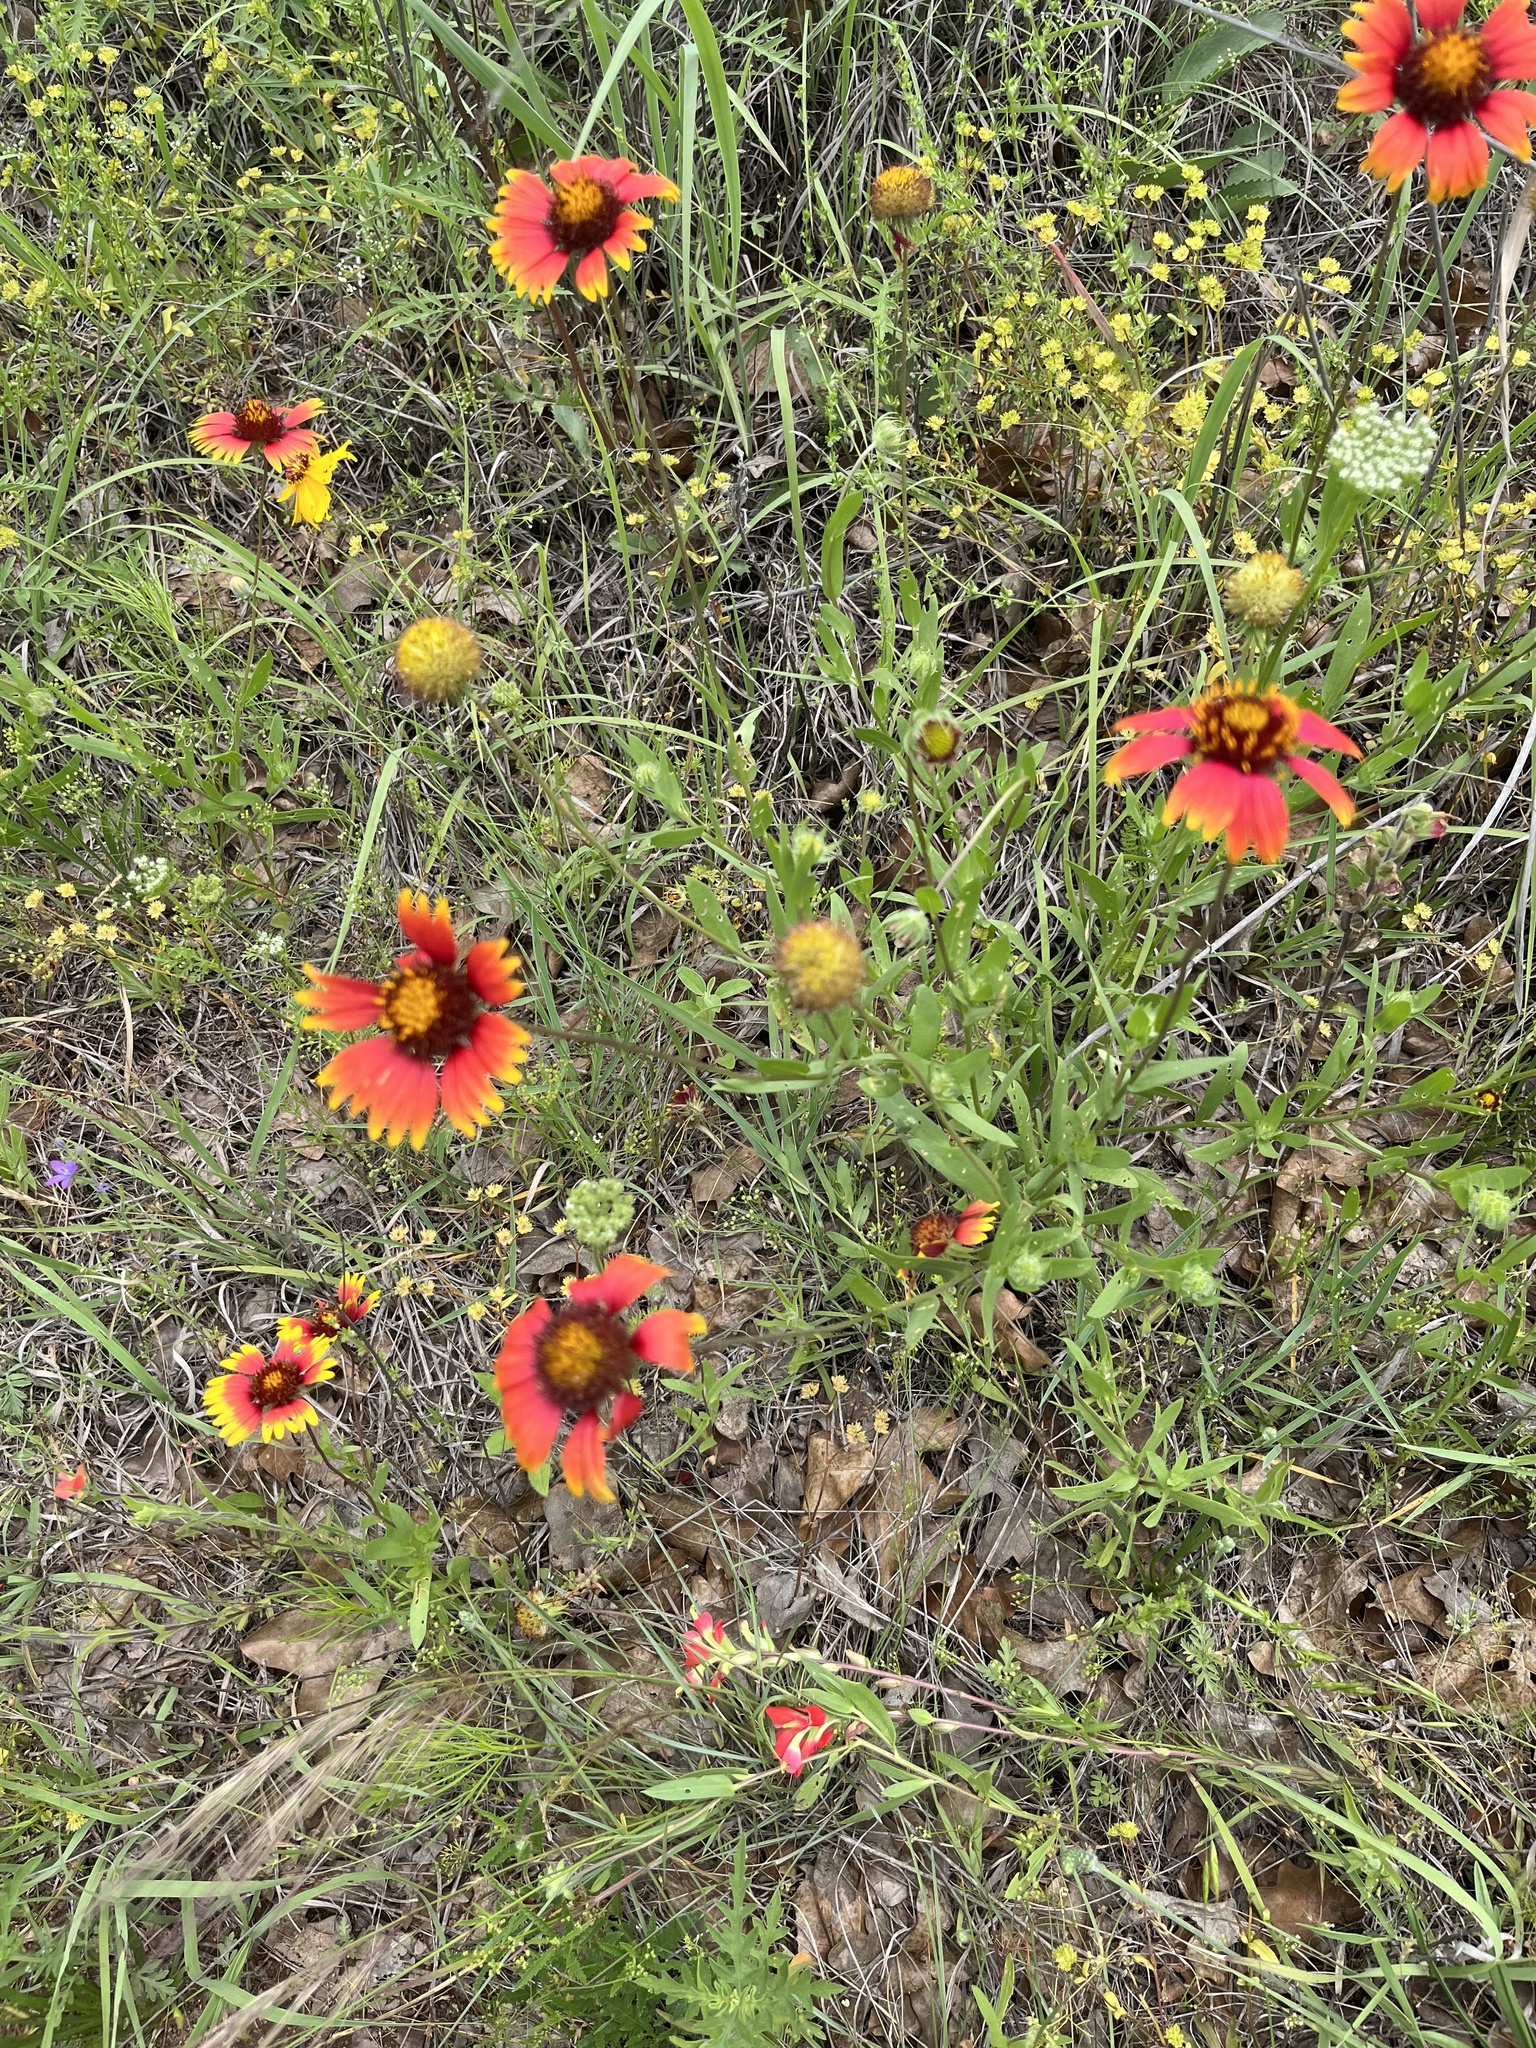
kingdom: Plantae
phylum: Tracheophyta
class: Magnoliopsida
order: Asterales
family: Asteraceae
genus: Gaillardia
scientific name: Gaillardia pulchella
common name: Firewheel
